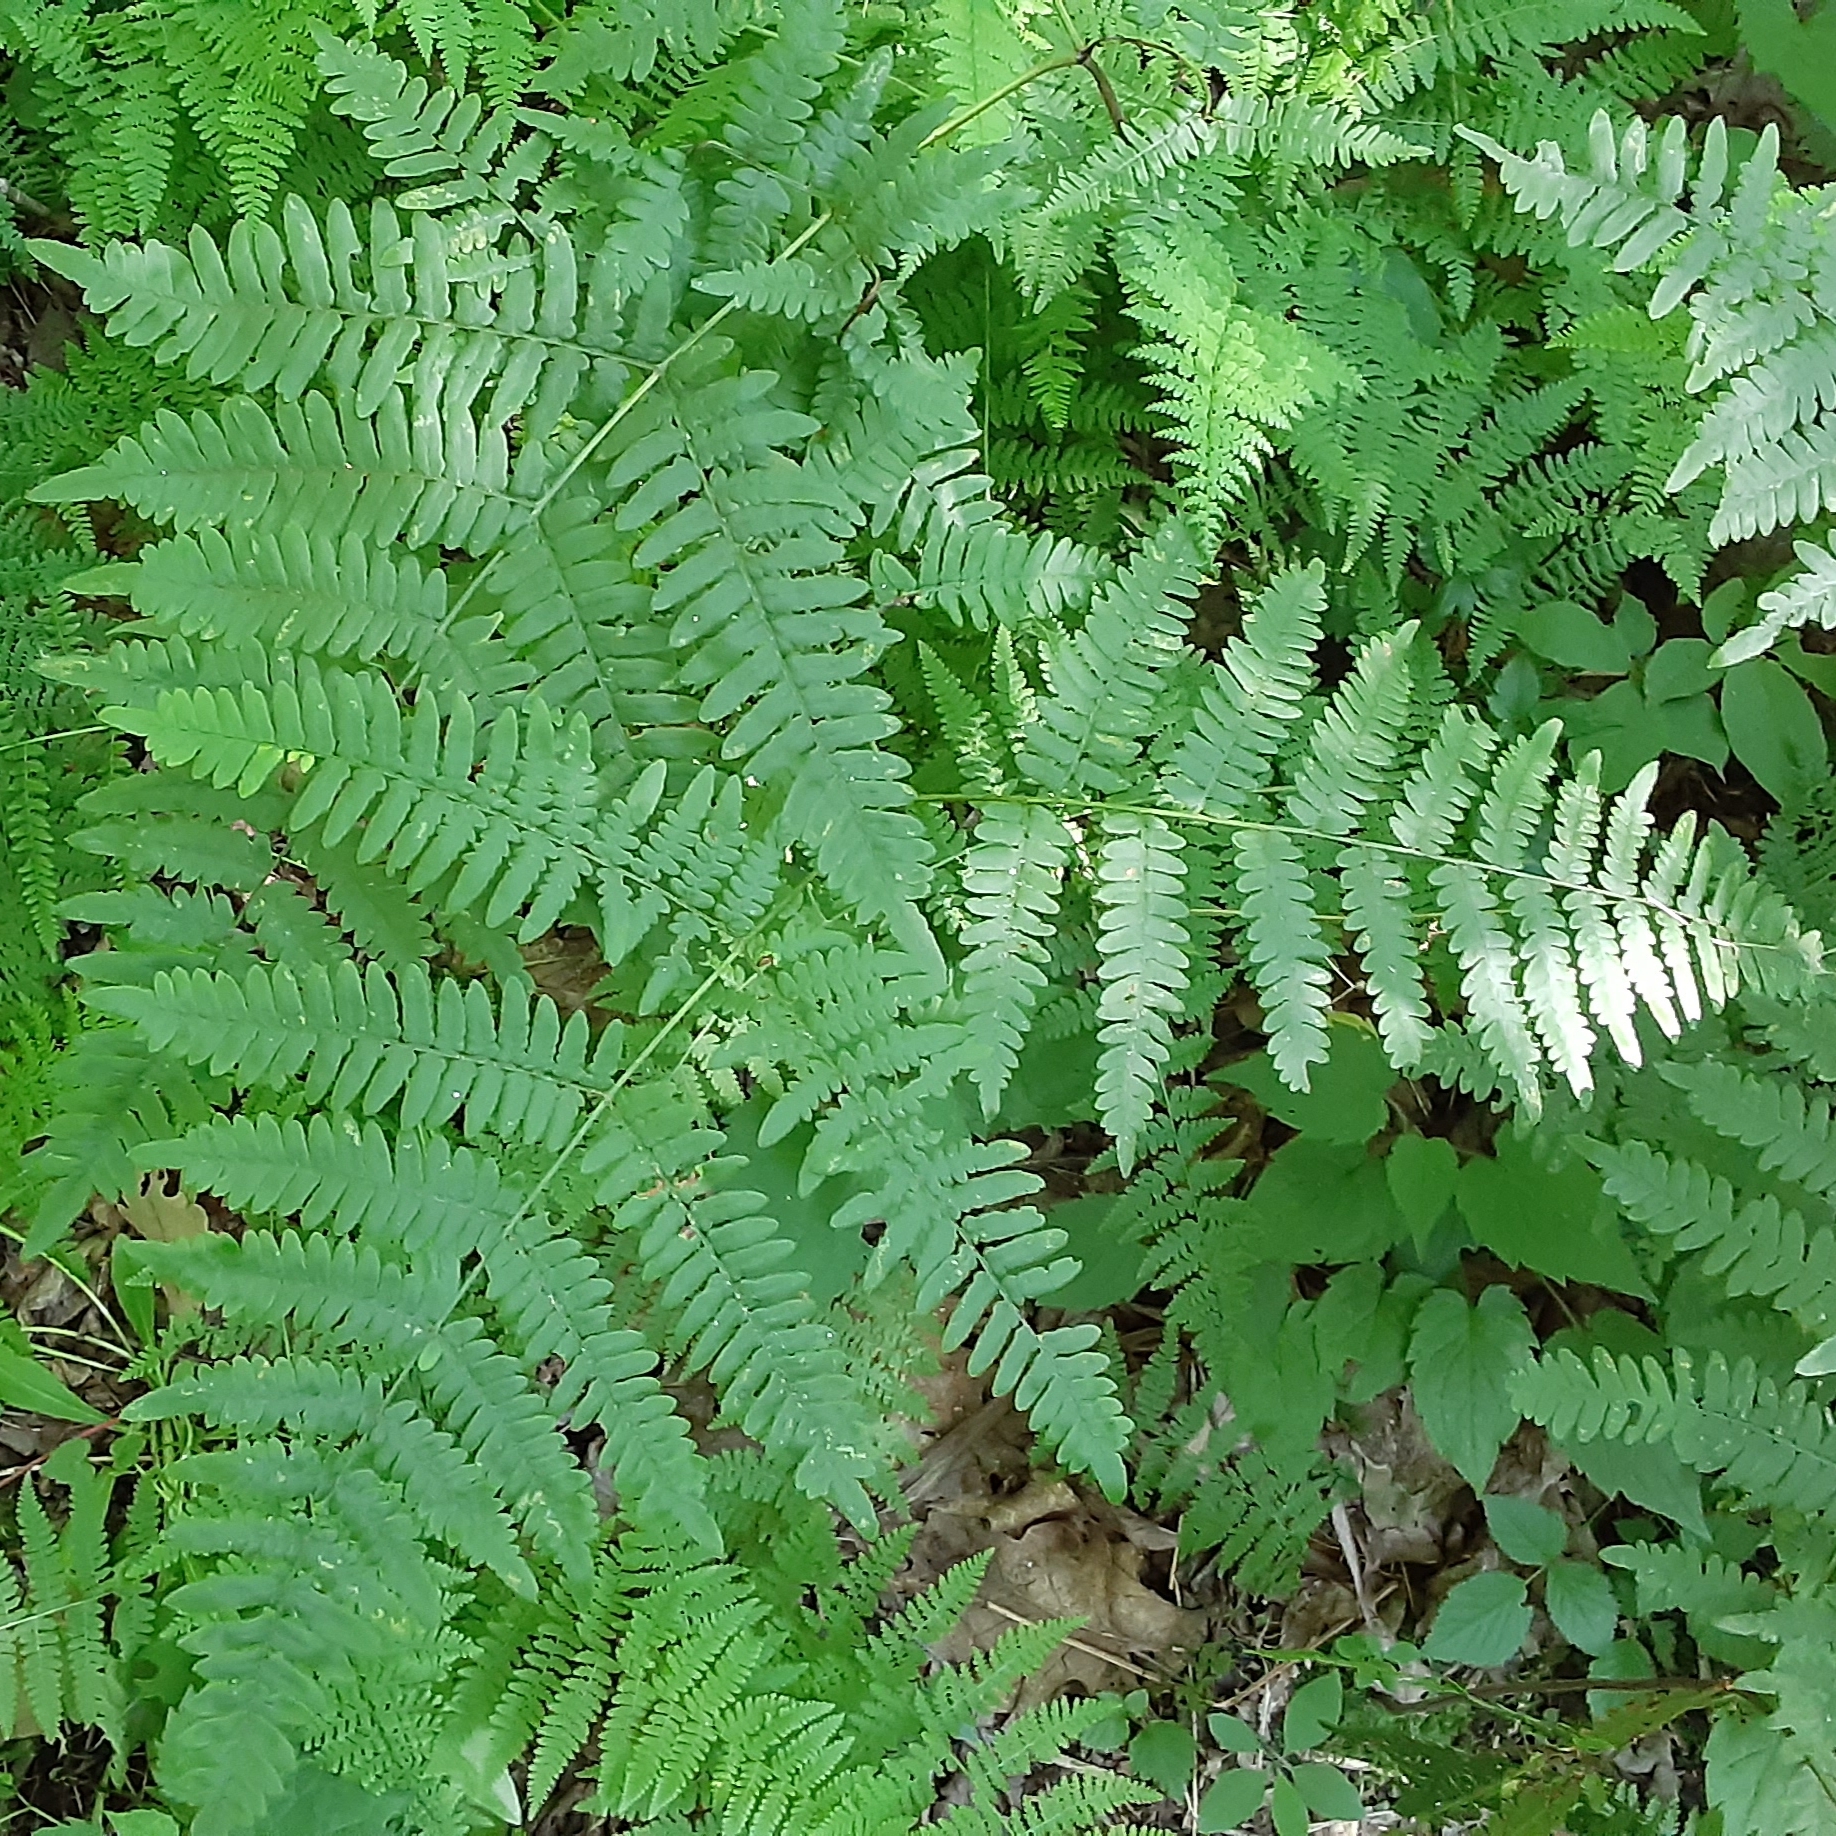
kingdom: Plantae
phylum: Tracheophyta
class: Polypodiopsida
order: Polypodiales
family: Dennstaedtiaceae
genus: Pteridium
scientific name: Pteridium aquilinum
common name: Bracken
